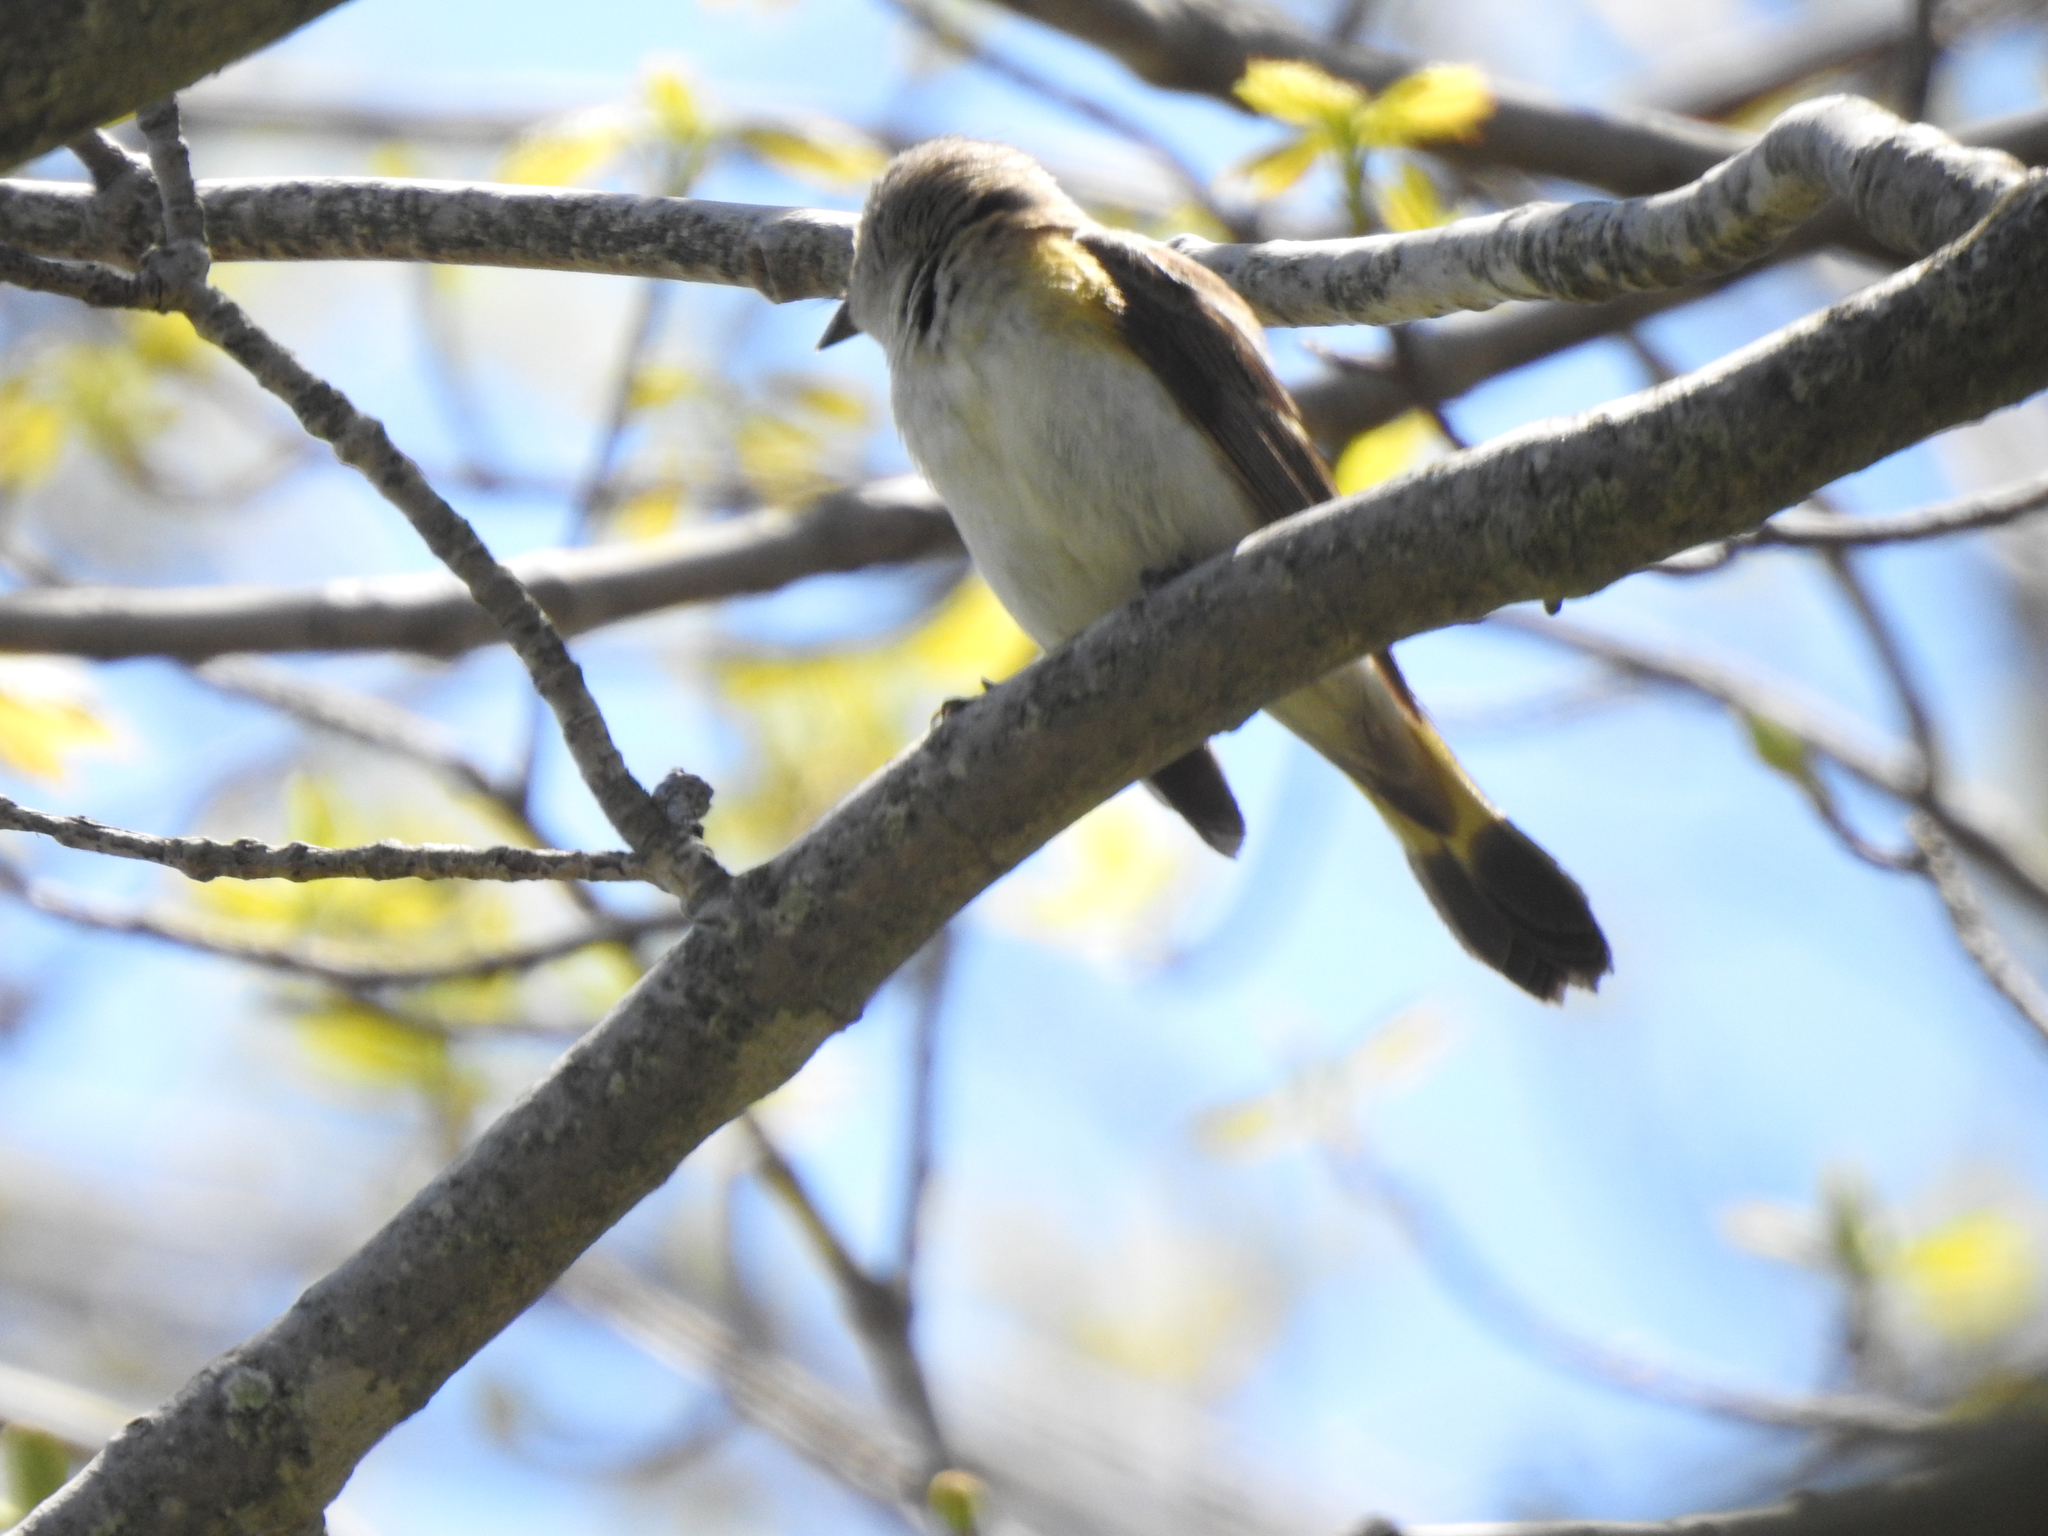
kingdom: Animalia
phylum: Chordata
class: Aves
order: Passeriformes
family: Parulidae
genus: Setophaga
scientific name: Setophaga ruticilla
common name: American redstart
